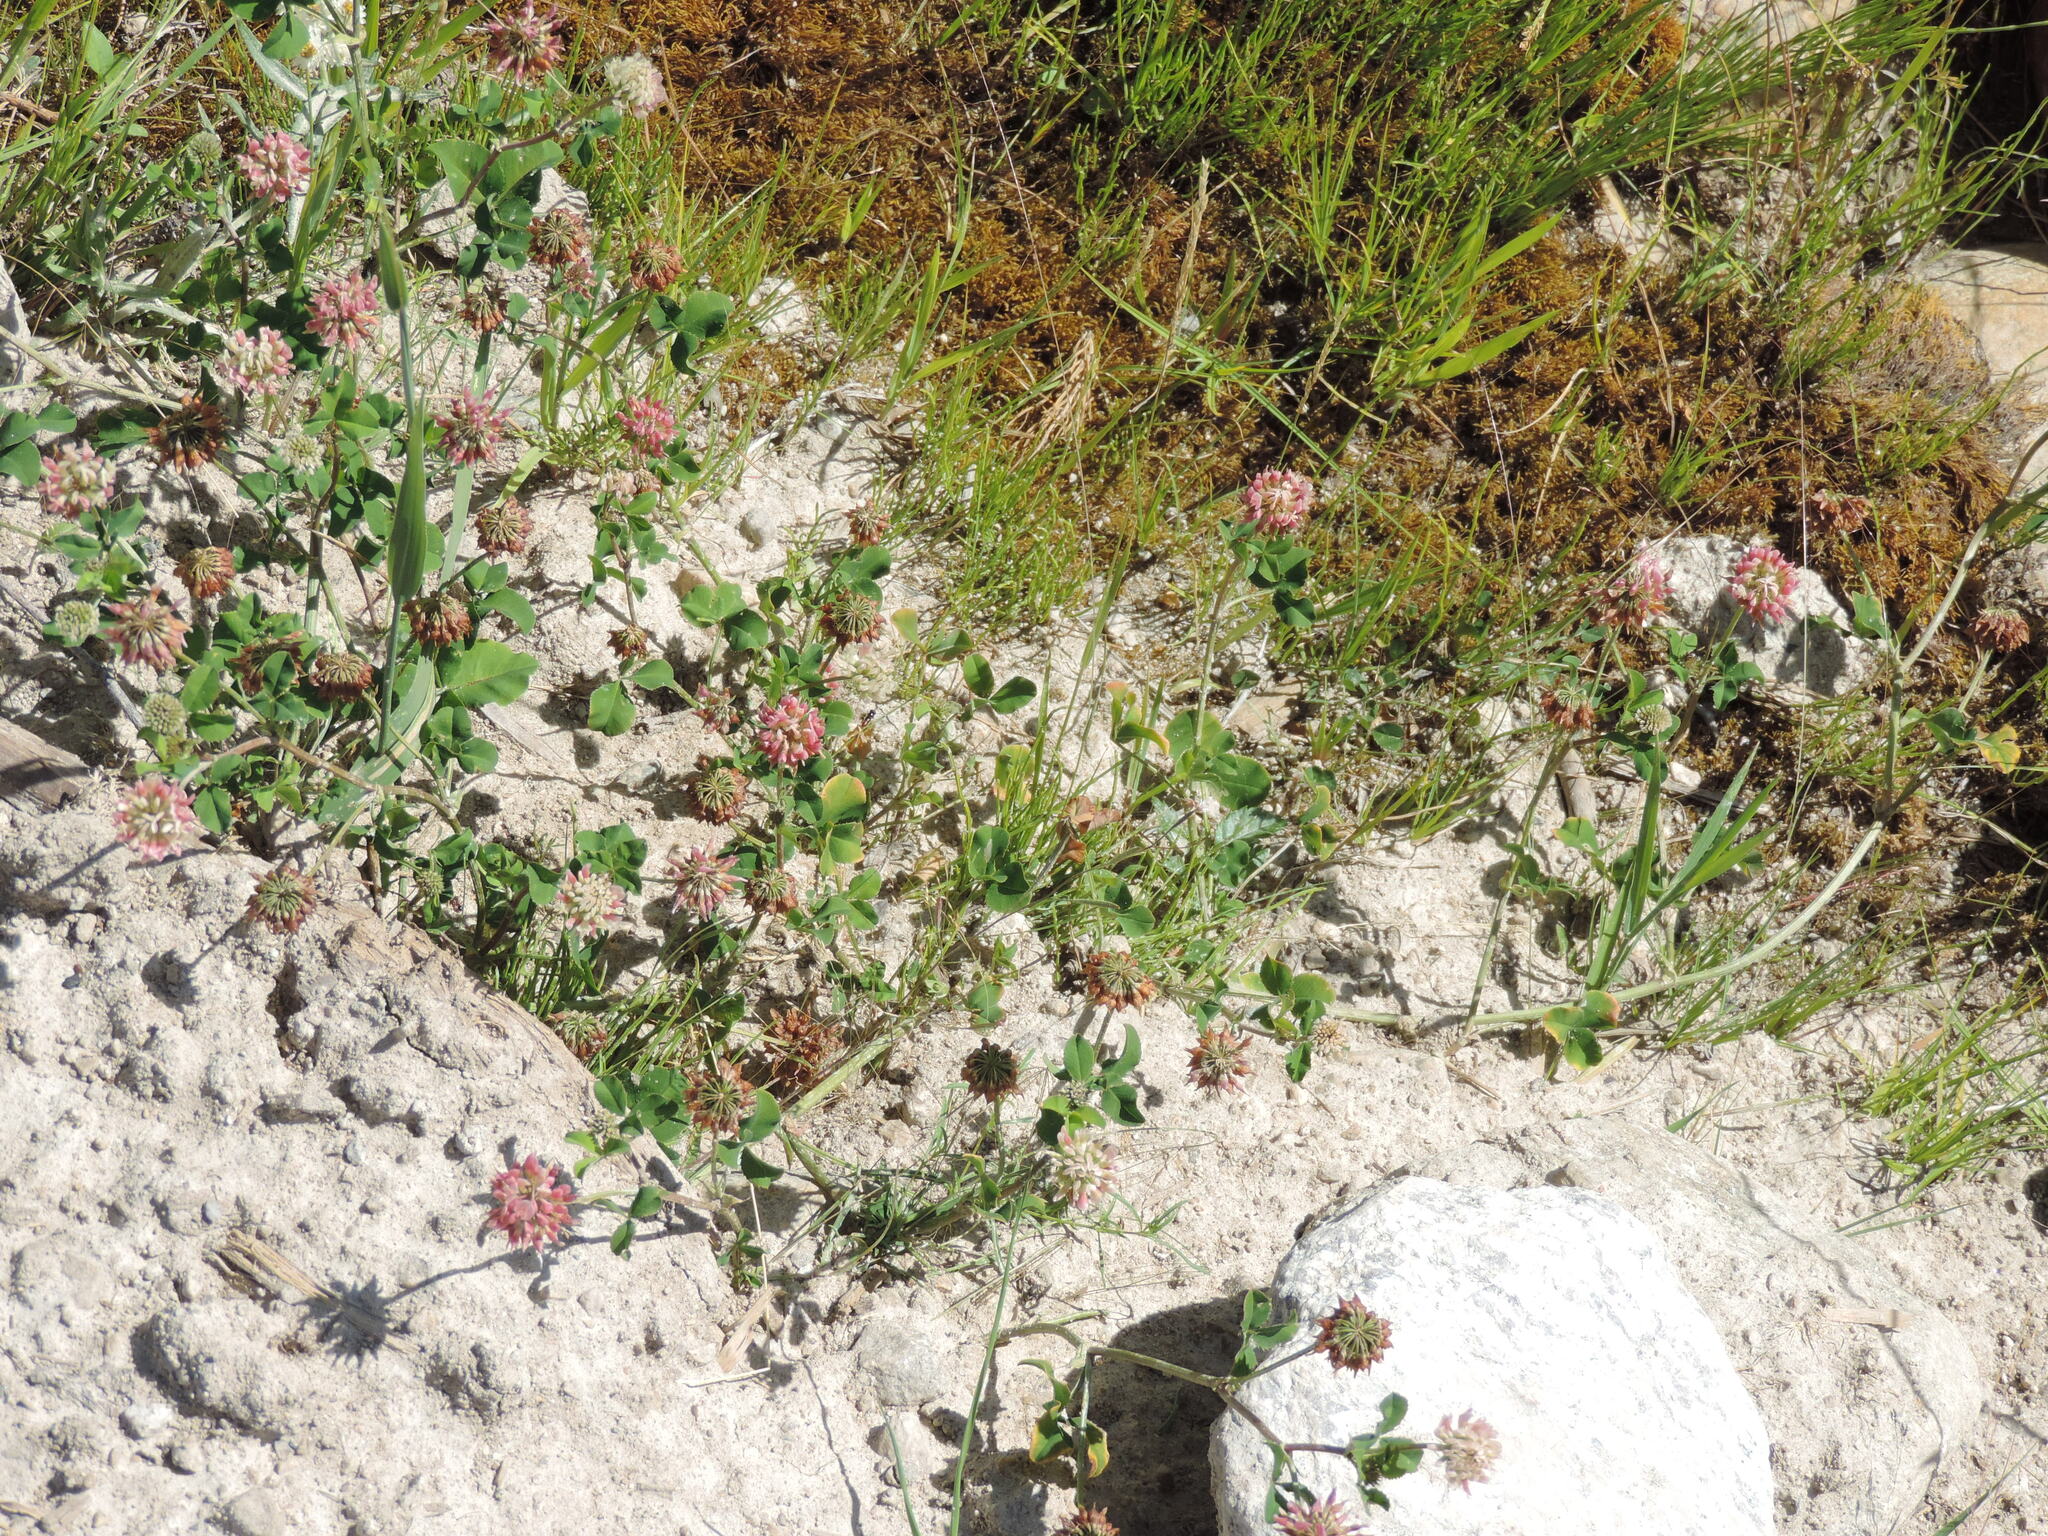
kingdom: Plantae
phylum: Tracheophyta
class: Magnoliopsida
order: Fabales
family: Fabaceae
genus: Trifolium
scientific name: Trifolium hybridum
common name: Alsike clover
